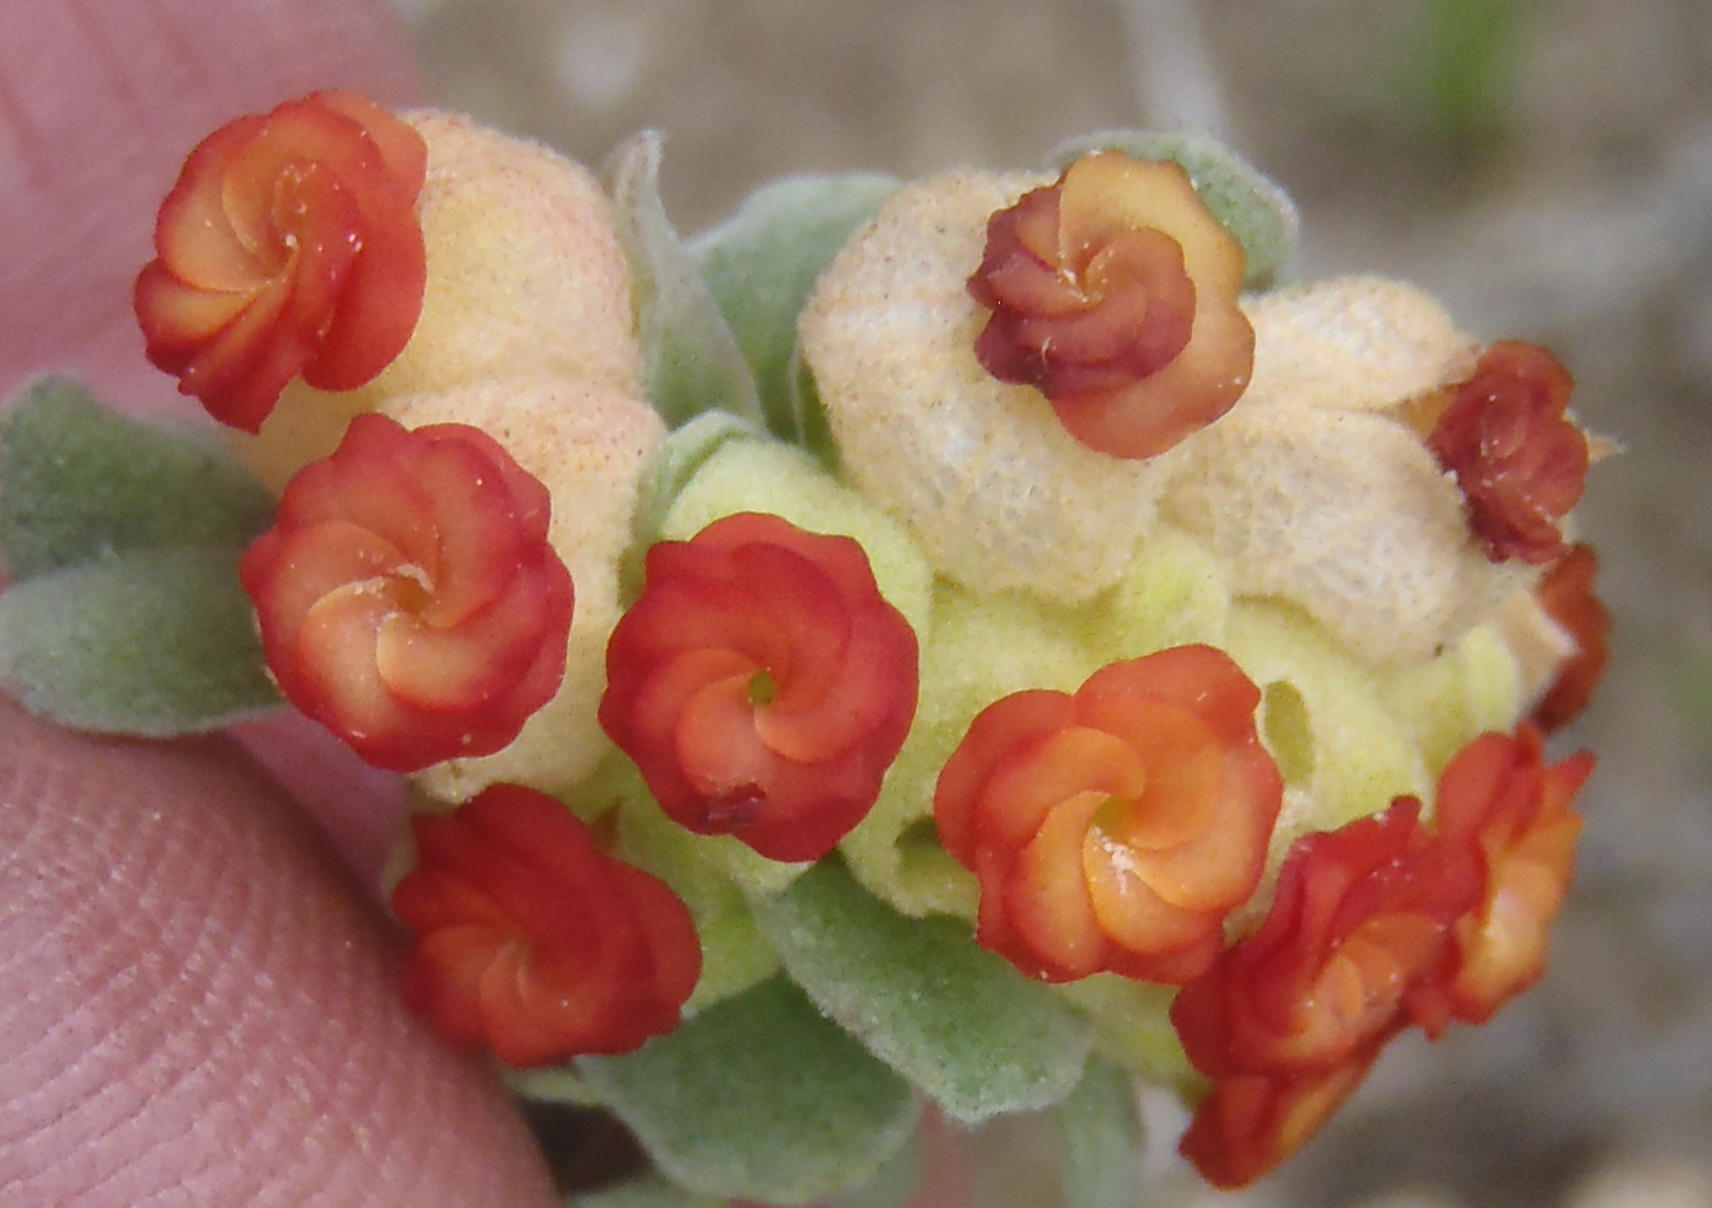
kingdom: Plantae
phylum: Tracheophyta
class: Magnoliopsida
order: Malvales
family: Malvaceae
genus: Hermannia
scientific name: Hermannia trifoliata
